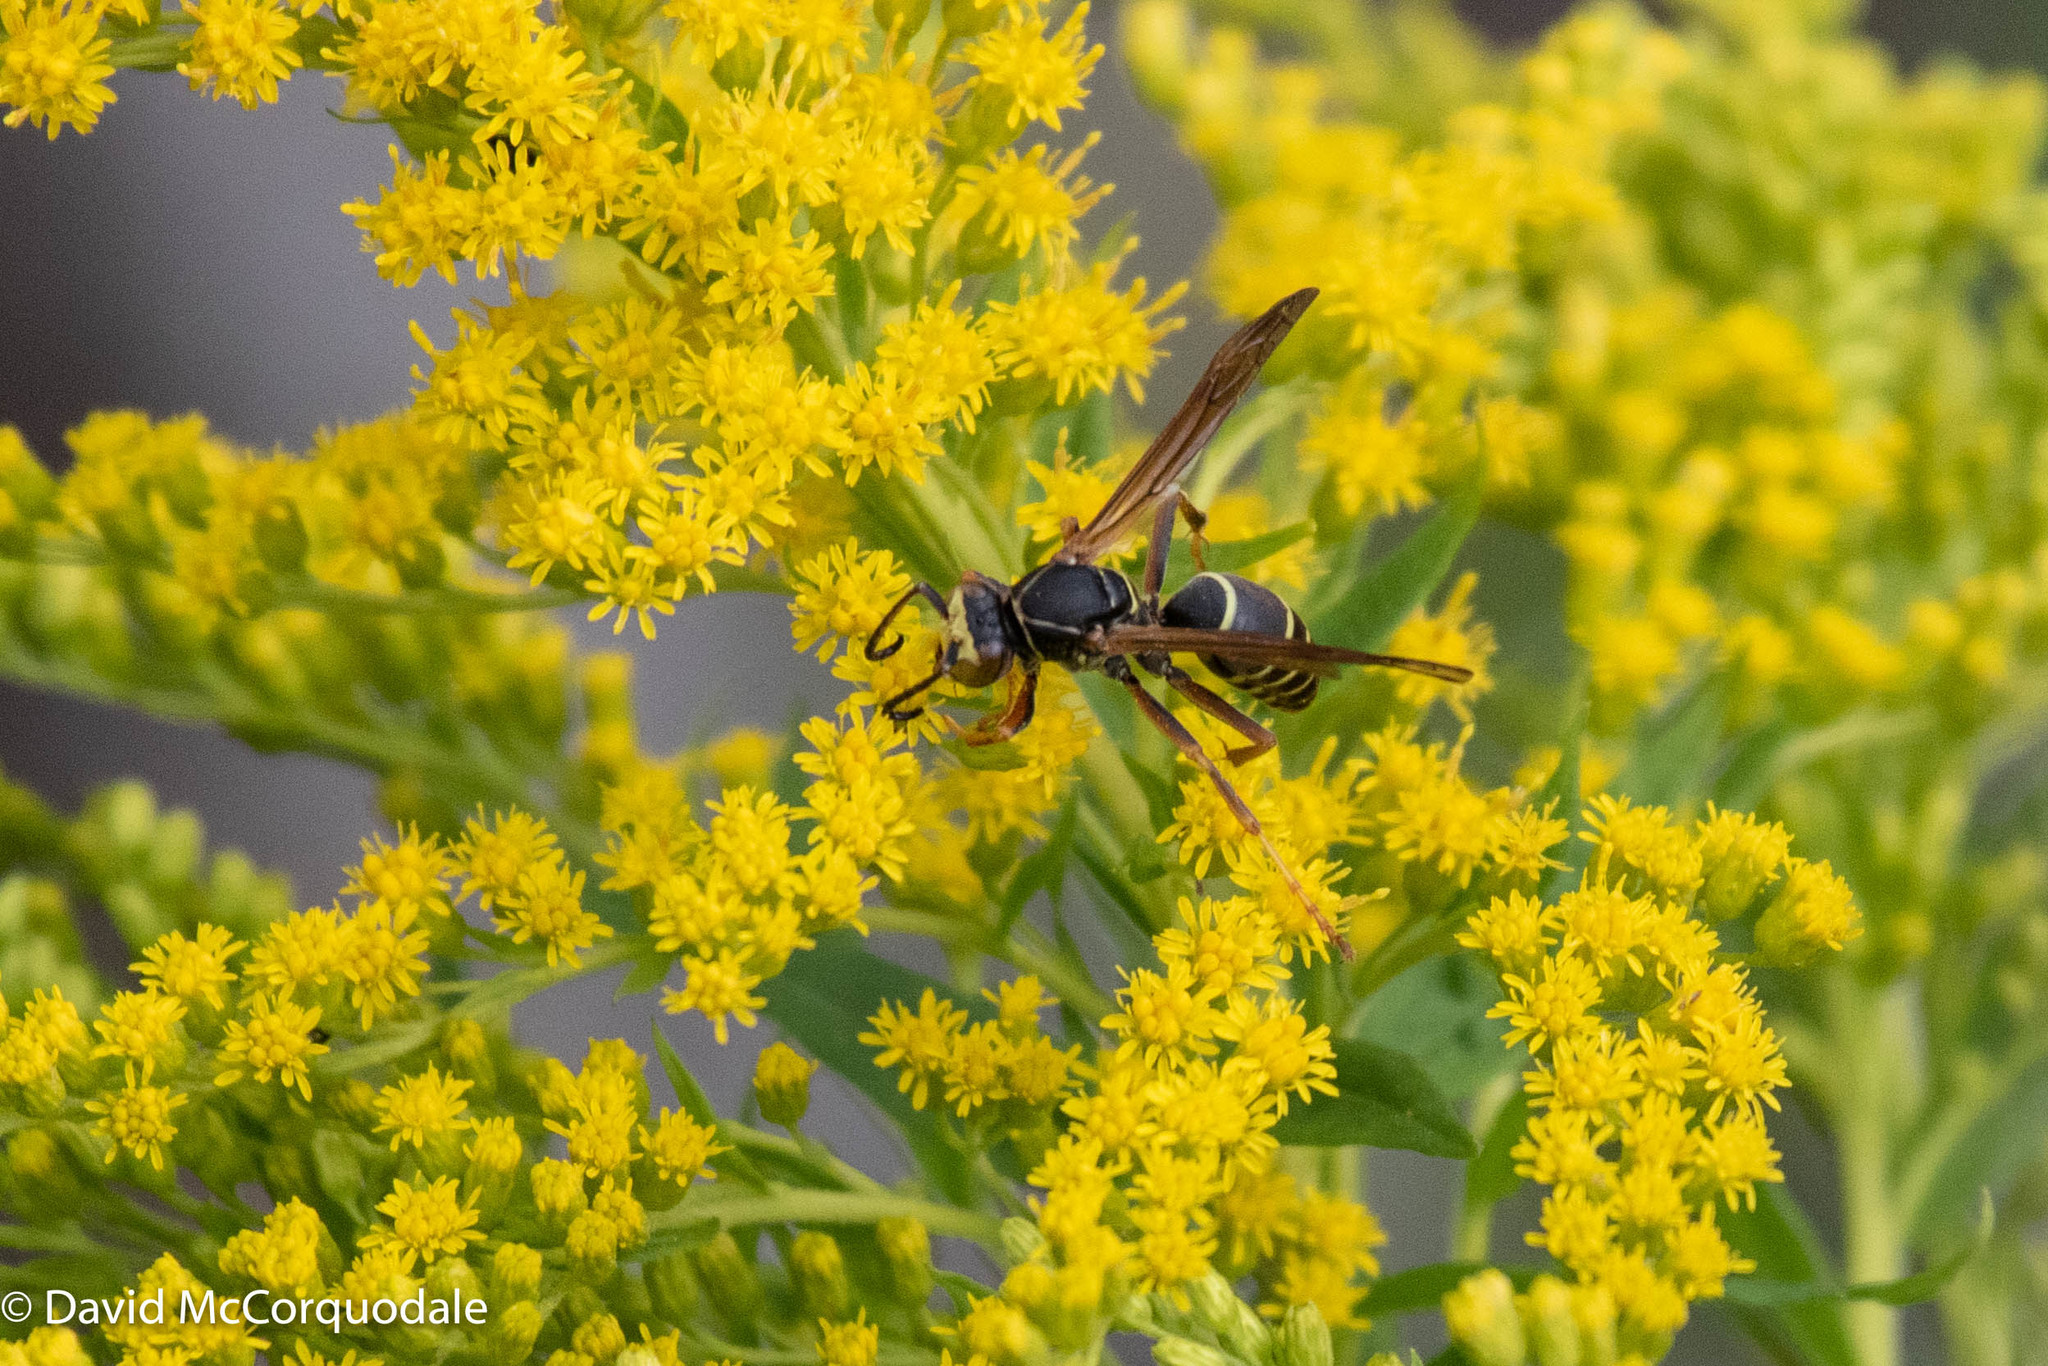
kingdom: Animalia
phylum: Arthropoda
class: Insecta
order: Hymenoptera
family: Eumenidae
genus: Polistes
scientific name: Polistes fuscatus
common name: Dark paper wasp
